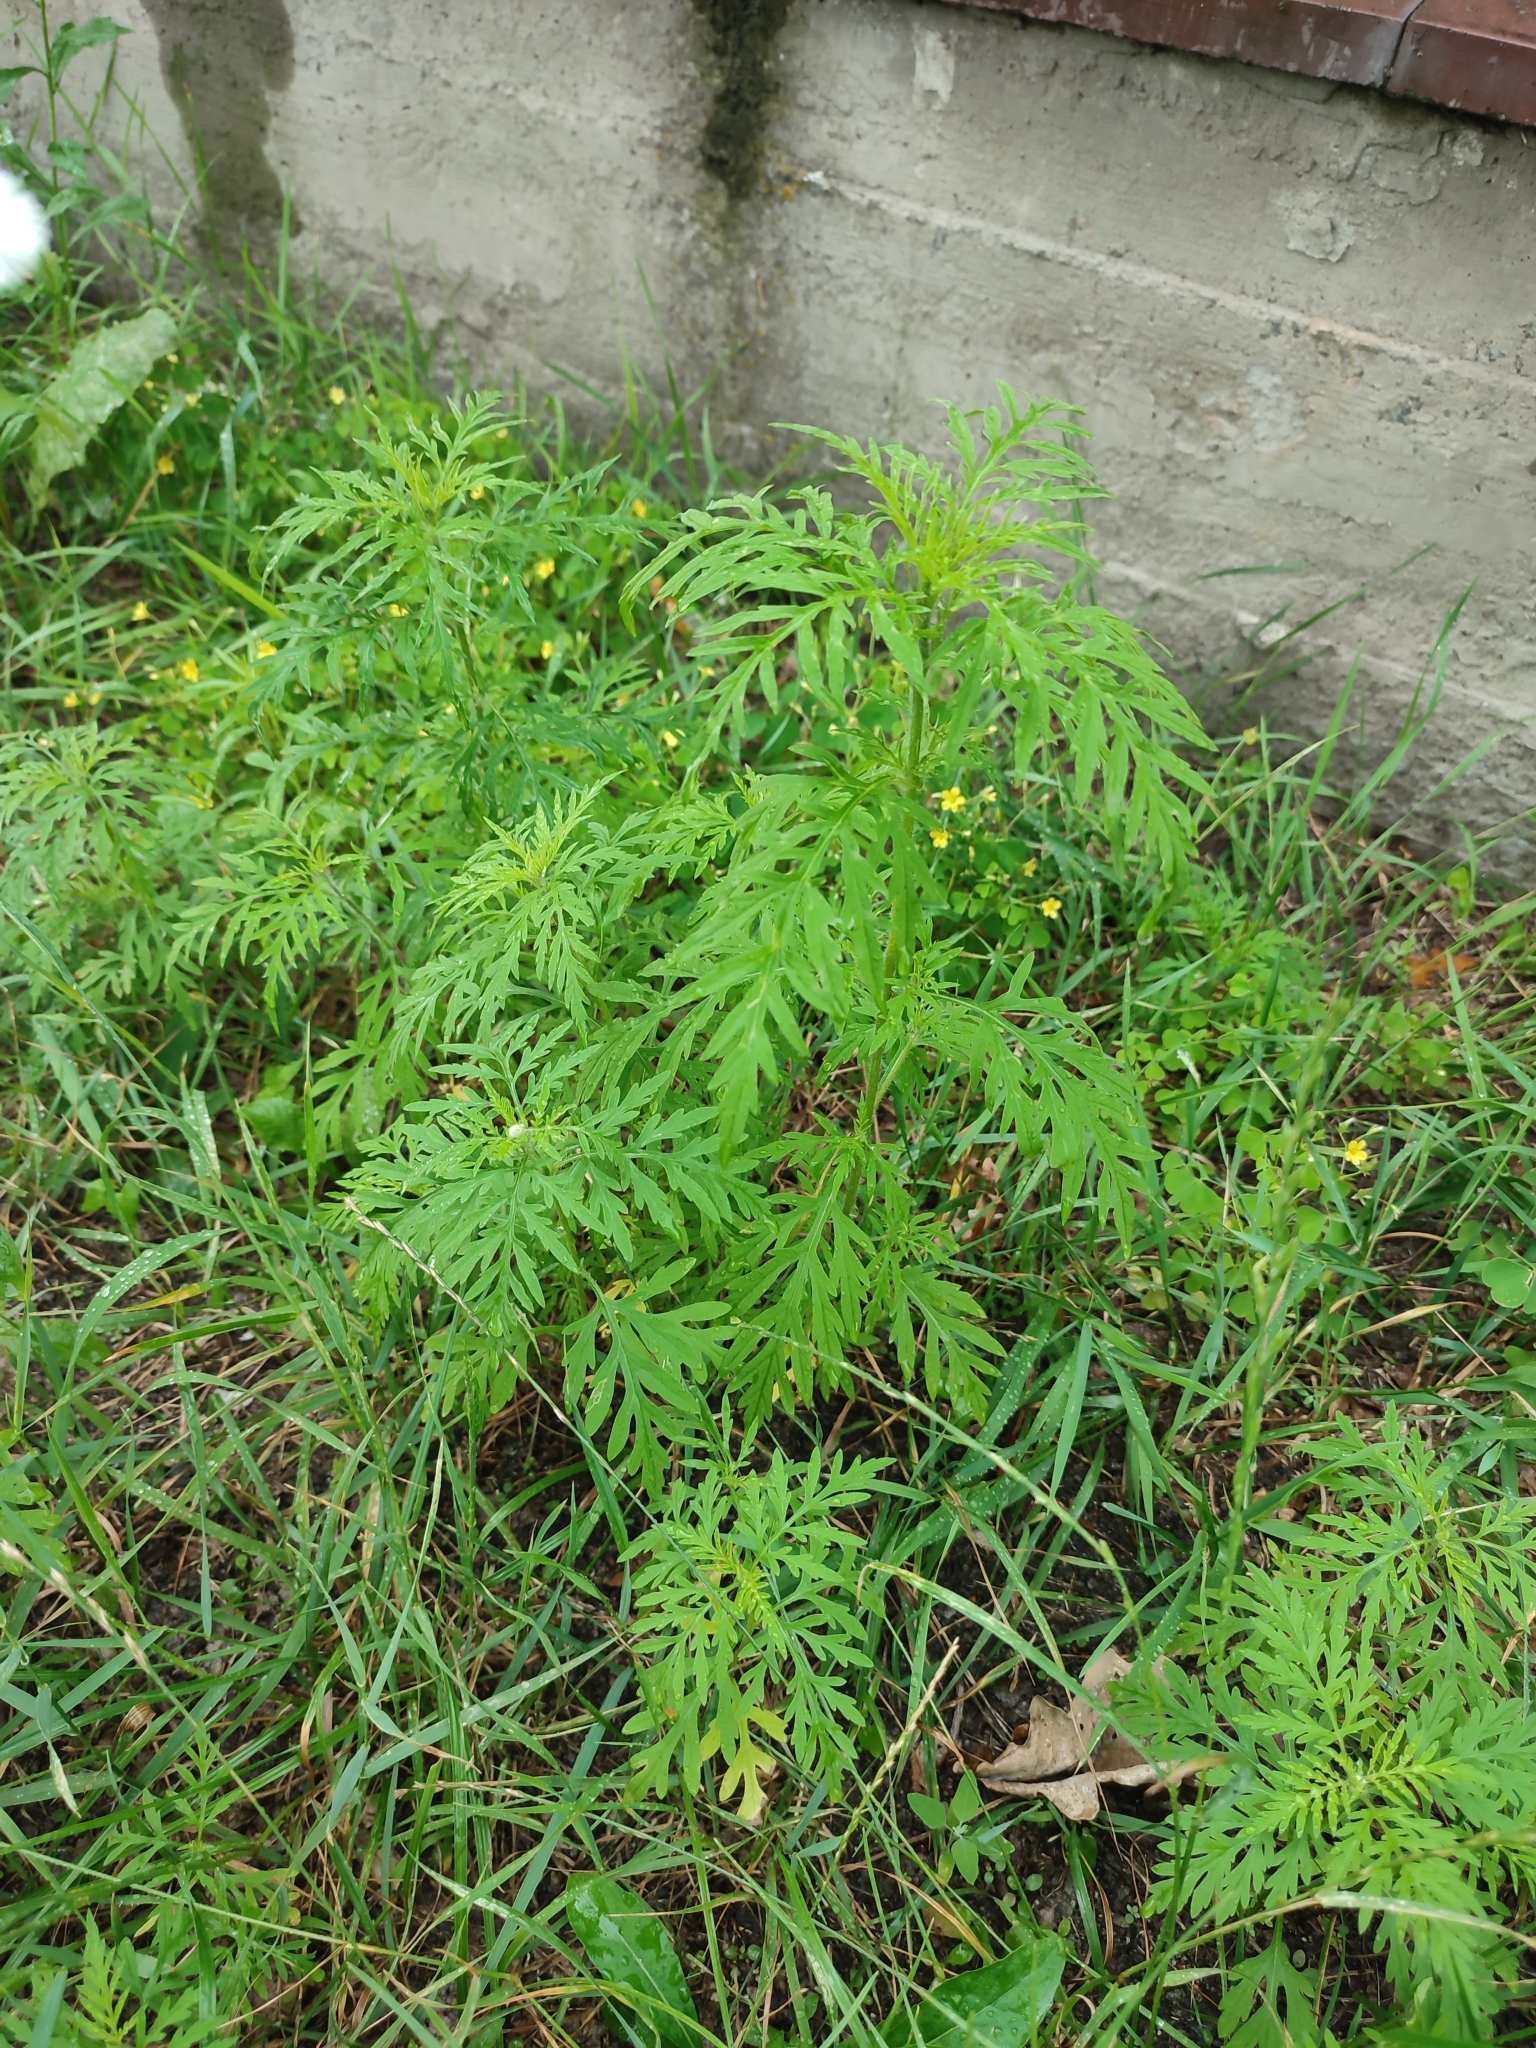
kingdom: Plantae
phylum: Tracheophyta
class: Magnoliopsida
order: Asterales
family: Asteraceae
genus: Ambrosia
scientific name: Ambrosia artemisiifolia
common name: Annual ragweed
